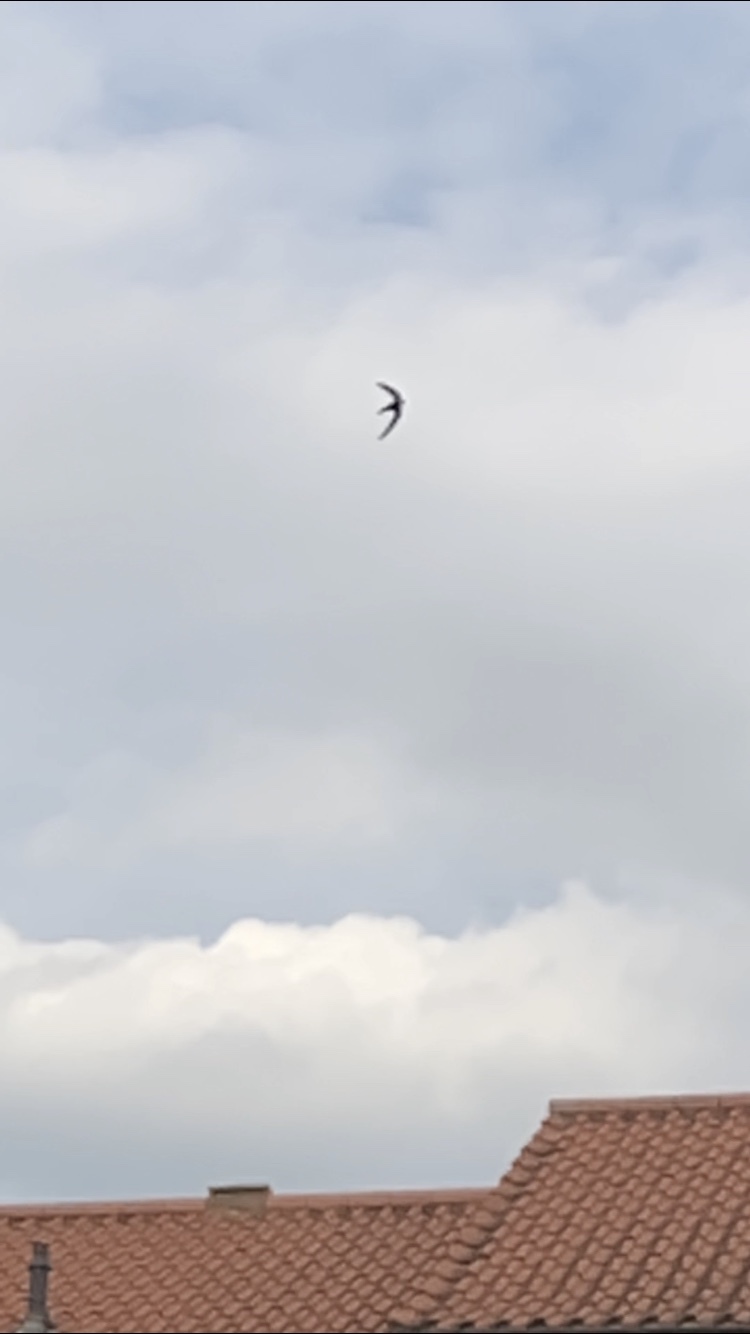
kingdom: Animalia
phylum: Chordata
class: Aves
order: Apodiformes
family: Apodidae
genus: Apus
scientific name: Apus apus
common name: Common swift
